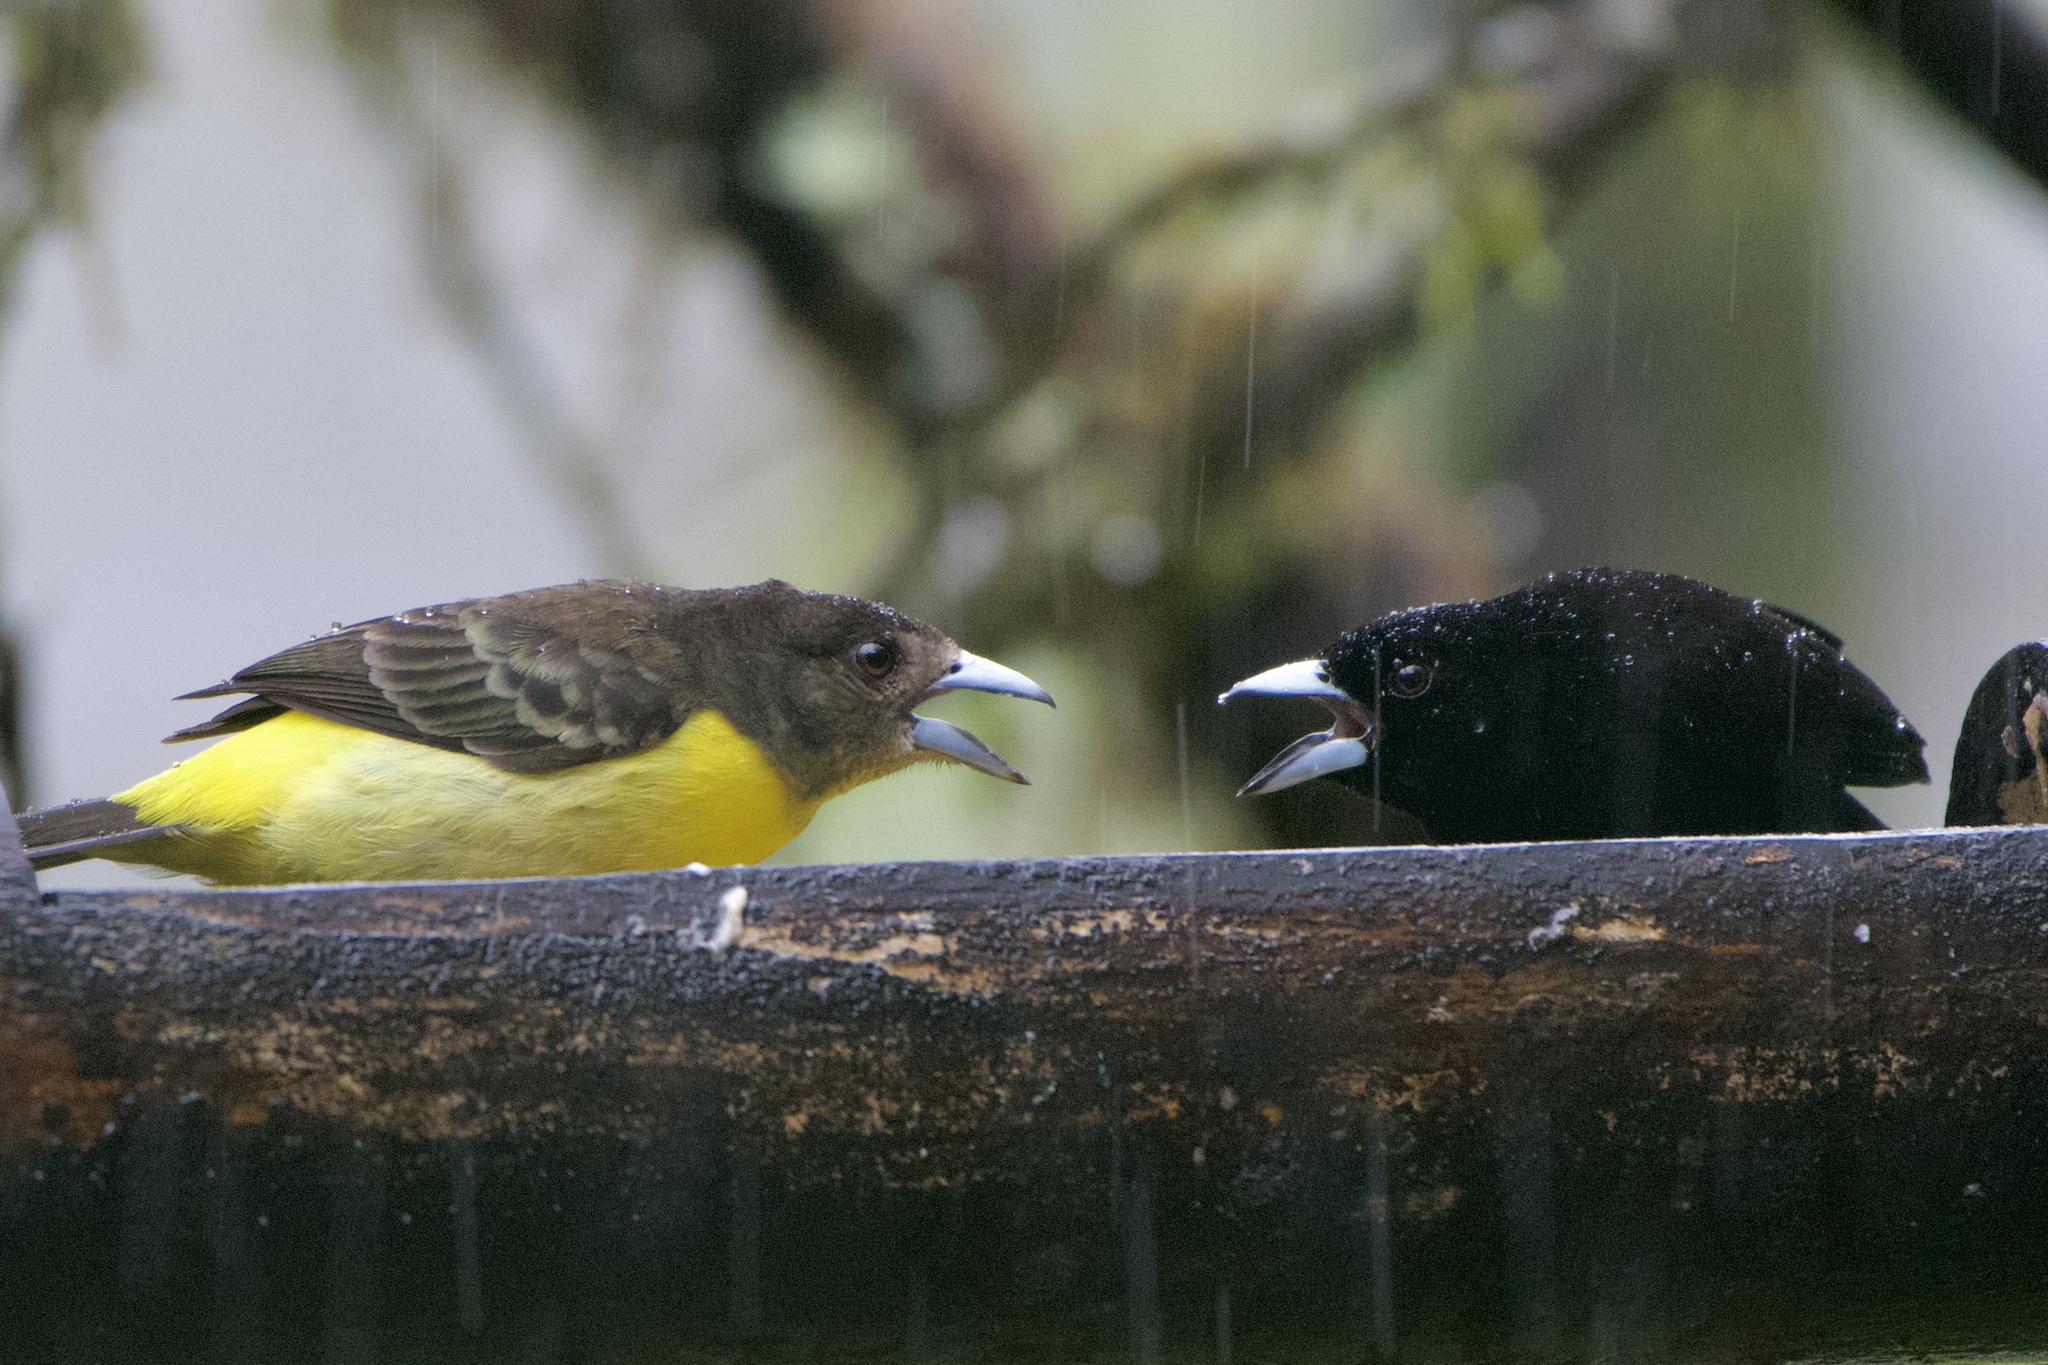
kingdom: Animalia
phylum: Chordata
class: Aves
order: Passeriformes
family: Thraupidae
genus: Ramphocelus
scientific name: Ramphocelus flammigerus
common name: Flame-rumped tanager
